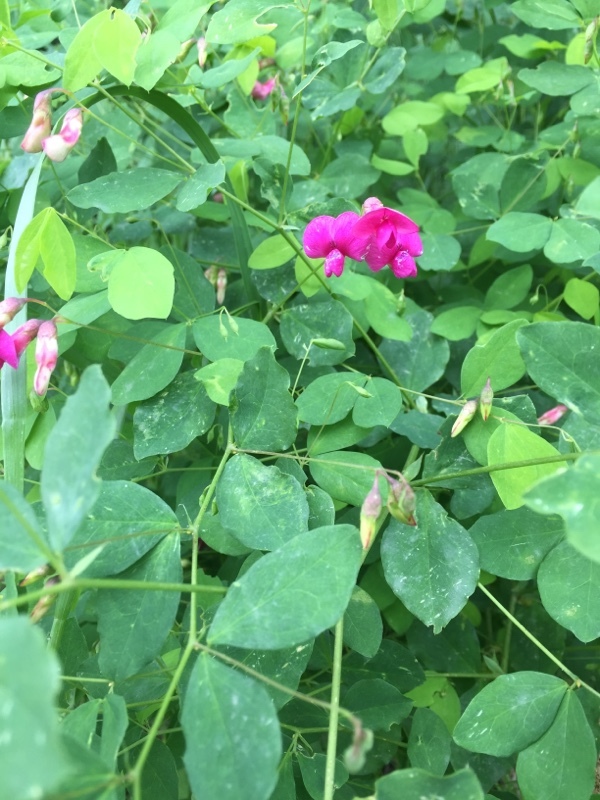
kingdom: Plantae
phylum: Tracheophyta
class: Magnoliopsida
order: Fabales
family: Fabaceae
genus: Lathyrus
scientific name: Lathyrus roseus
